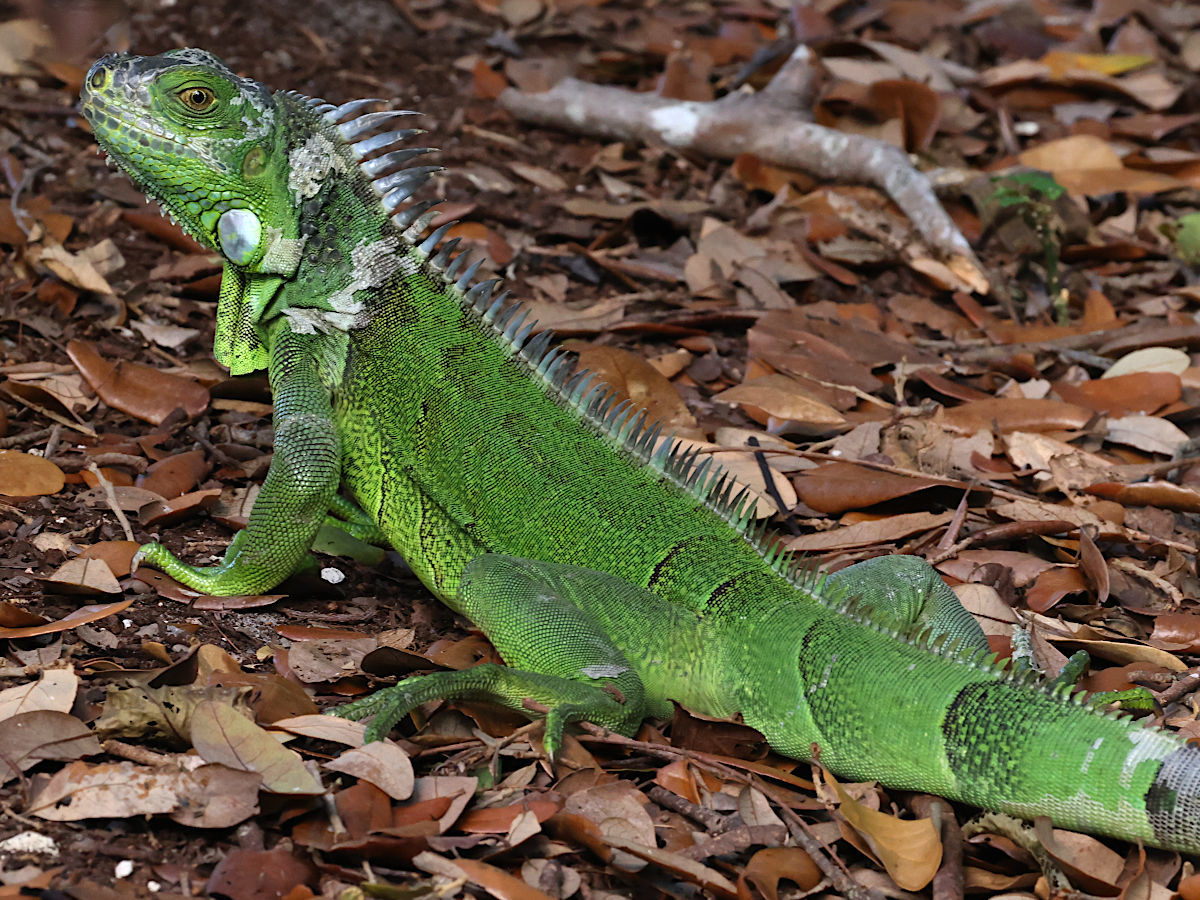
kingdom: Animalia
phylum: Chordata
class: Squamata
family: Iguanidae
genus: Iguana
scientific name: Iguana iguana
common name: Green iguana
